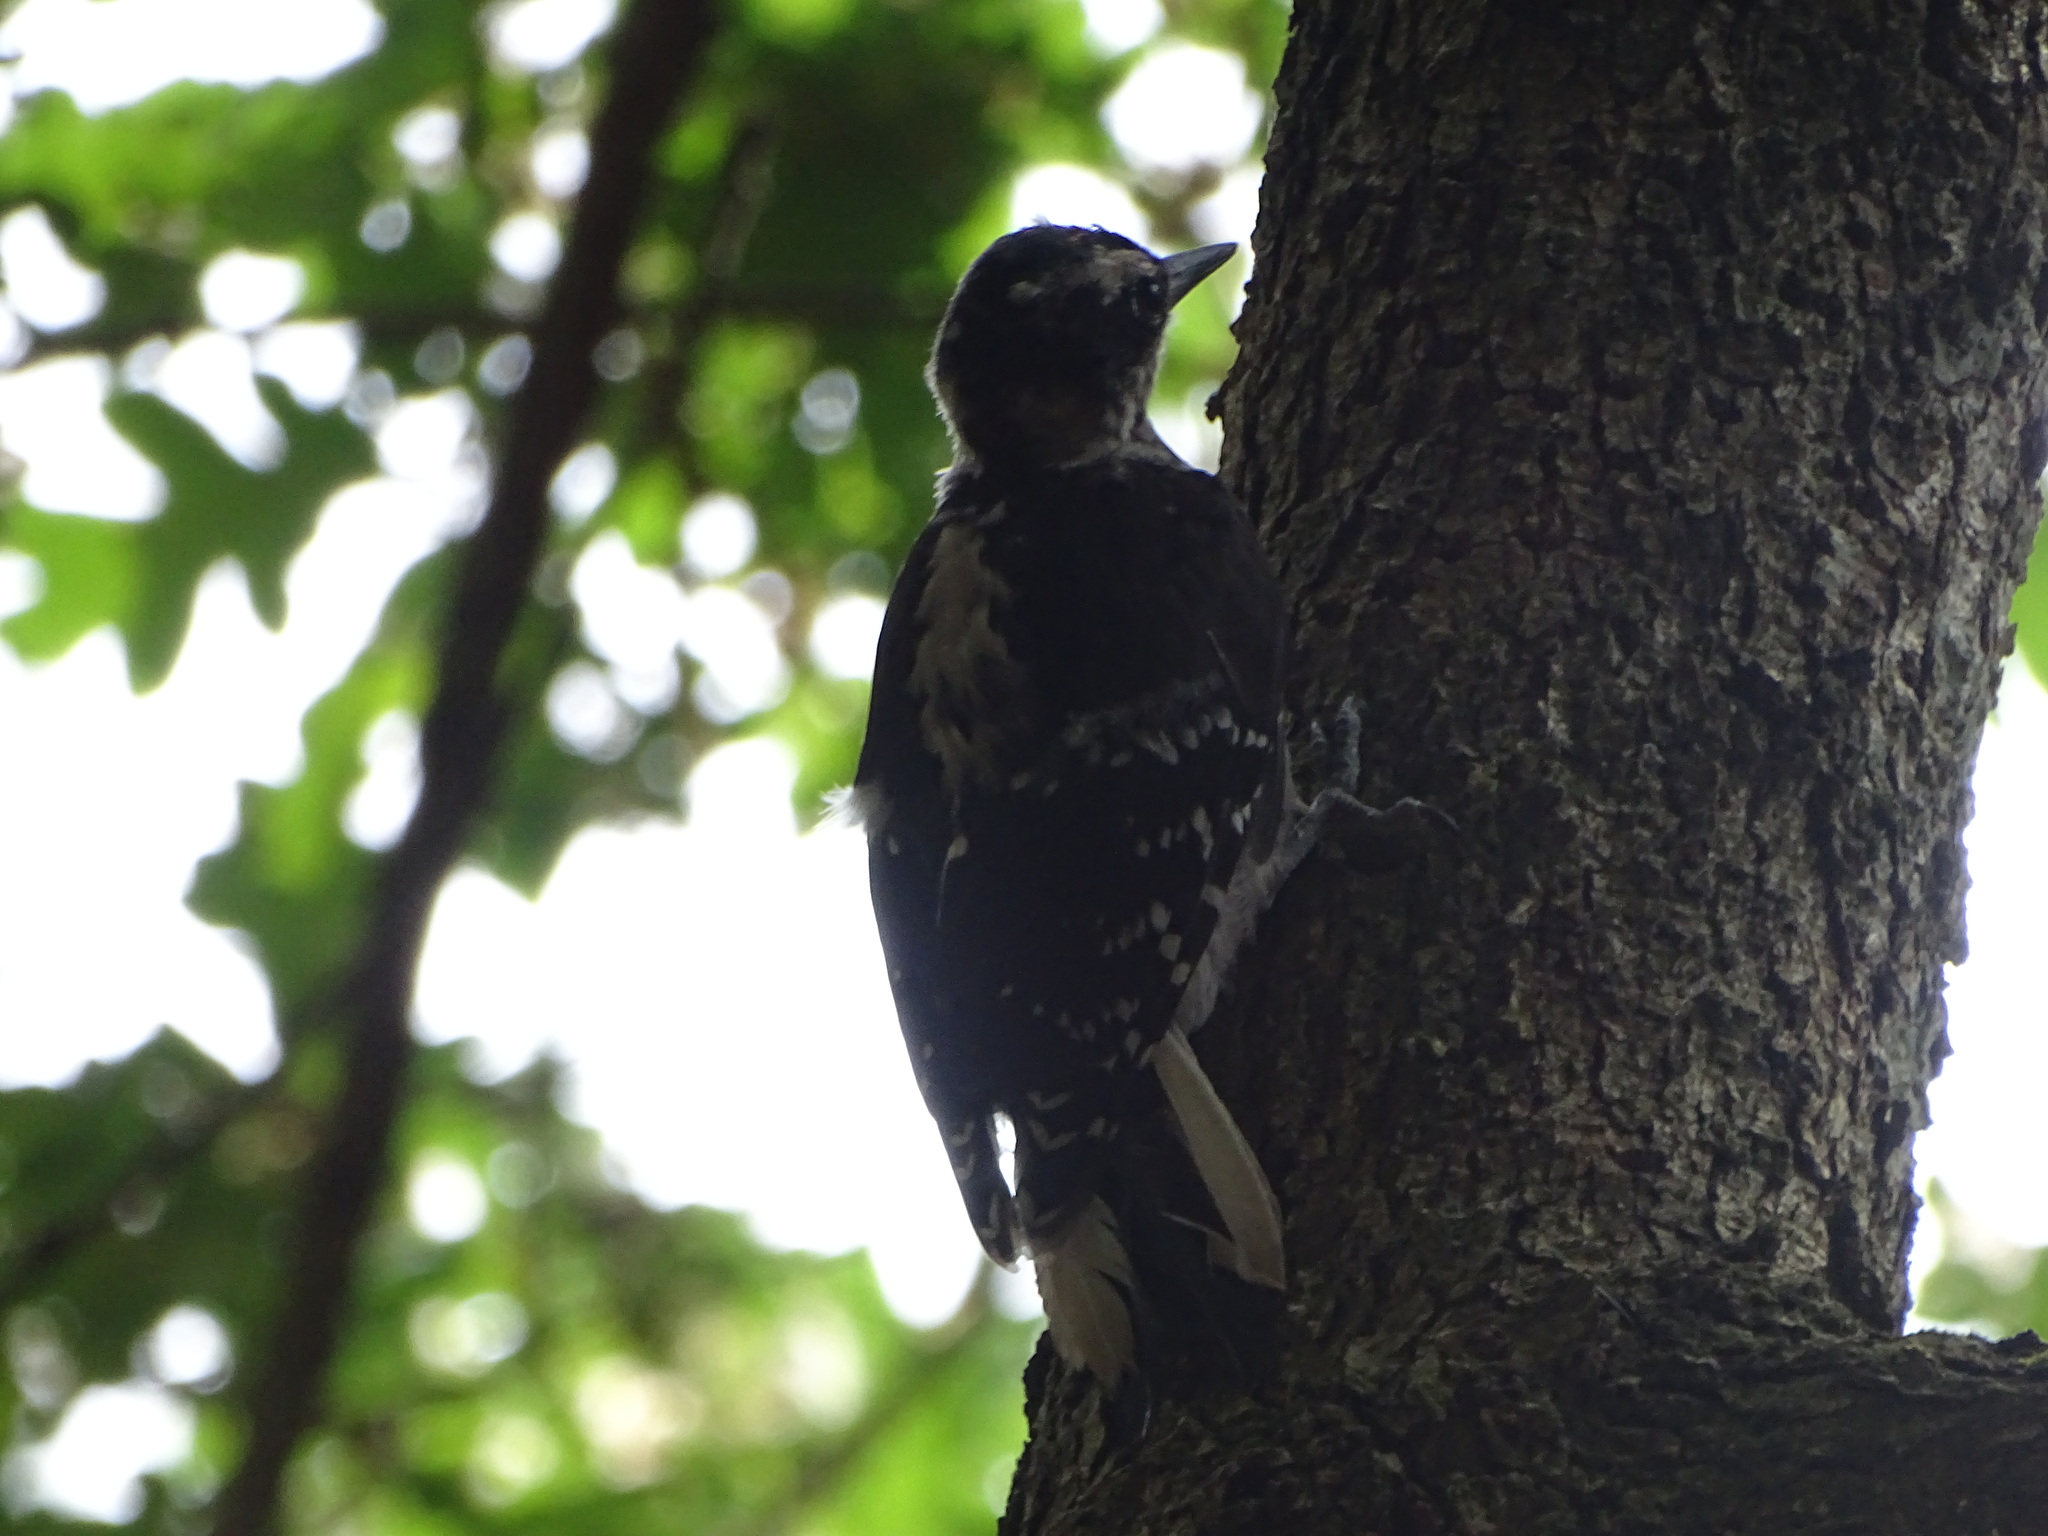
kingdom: Animalia
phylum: Chordata
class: Aves
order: Piciformes
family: Picidae
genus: Leuconotopicus
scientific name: Leuconotopicus villosus
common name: Hairy woodpecker
